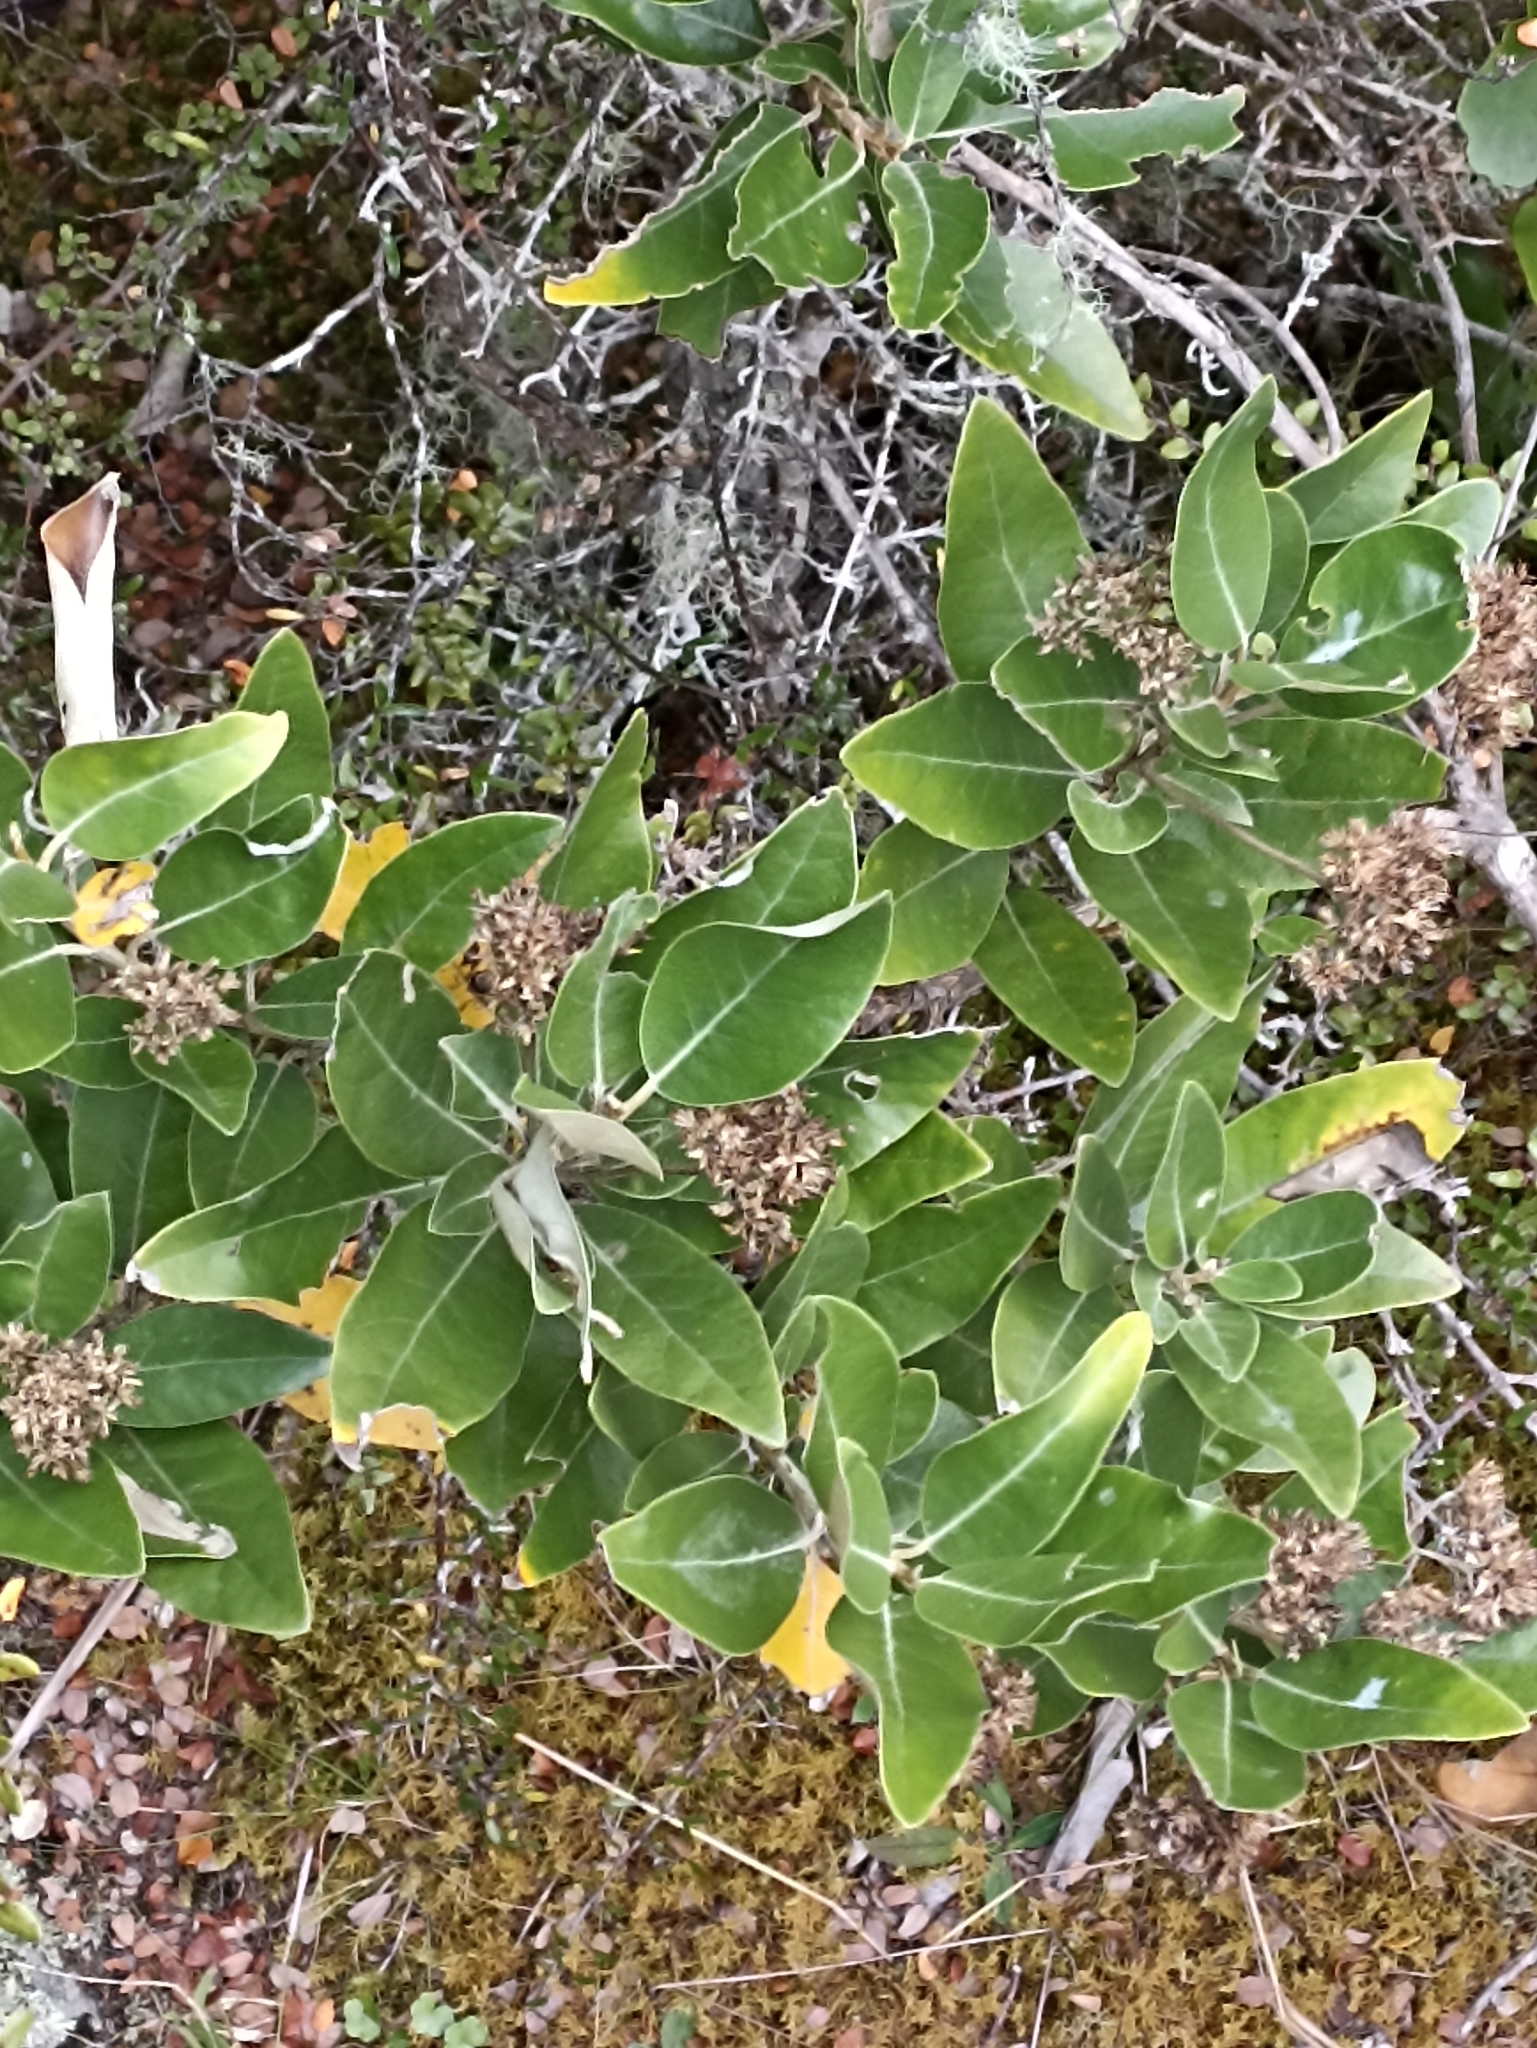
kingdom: Plantae
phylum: Tracheophyta
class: Magnoliopsida
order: Asterales
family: Asteraceae
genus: Olearia
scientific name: Olearia avicenniifolia
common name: Mangrove-leaf daisybush
